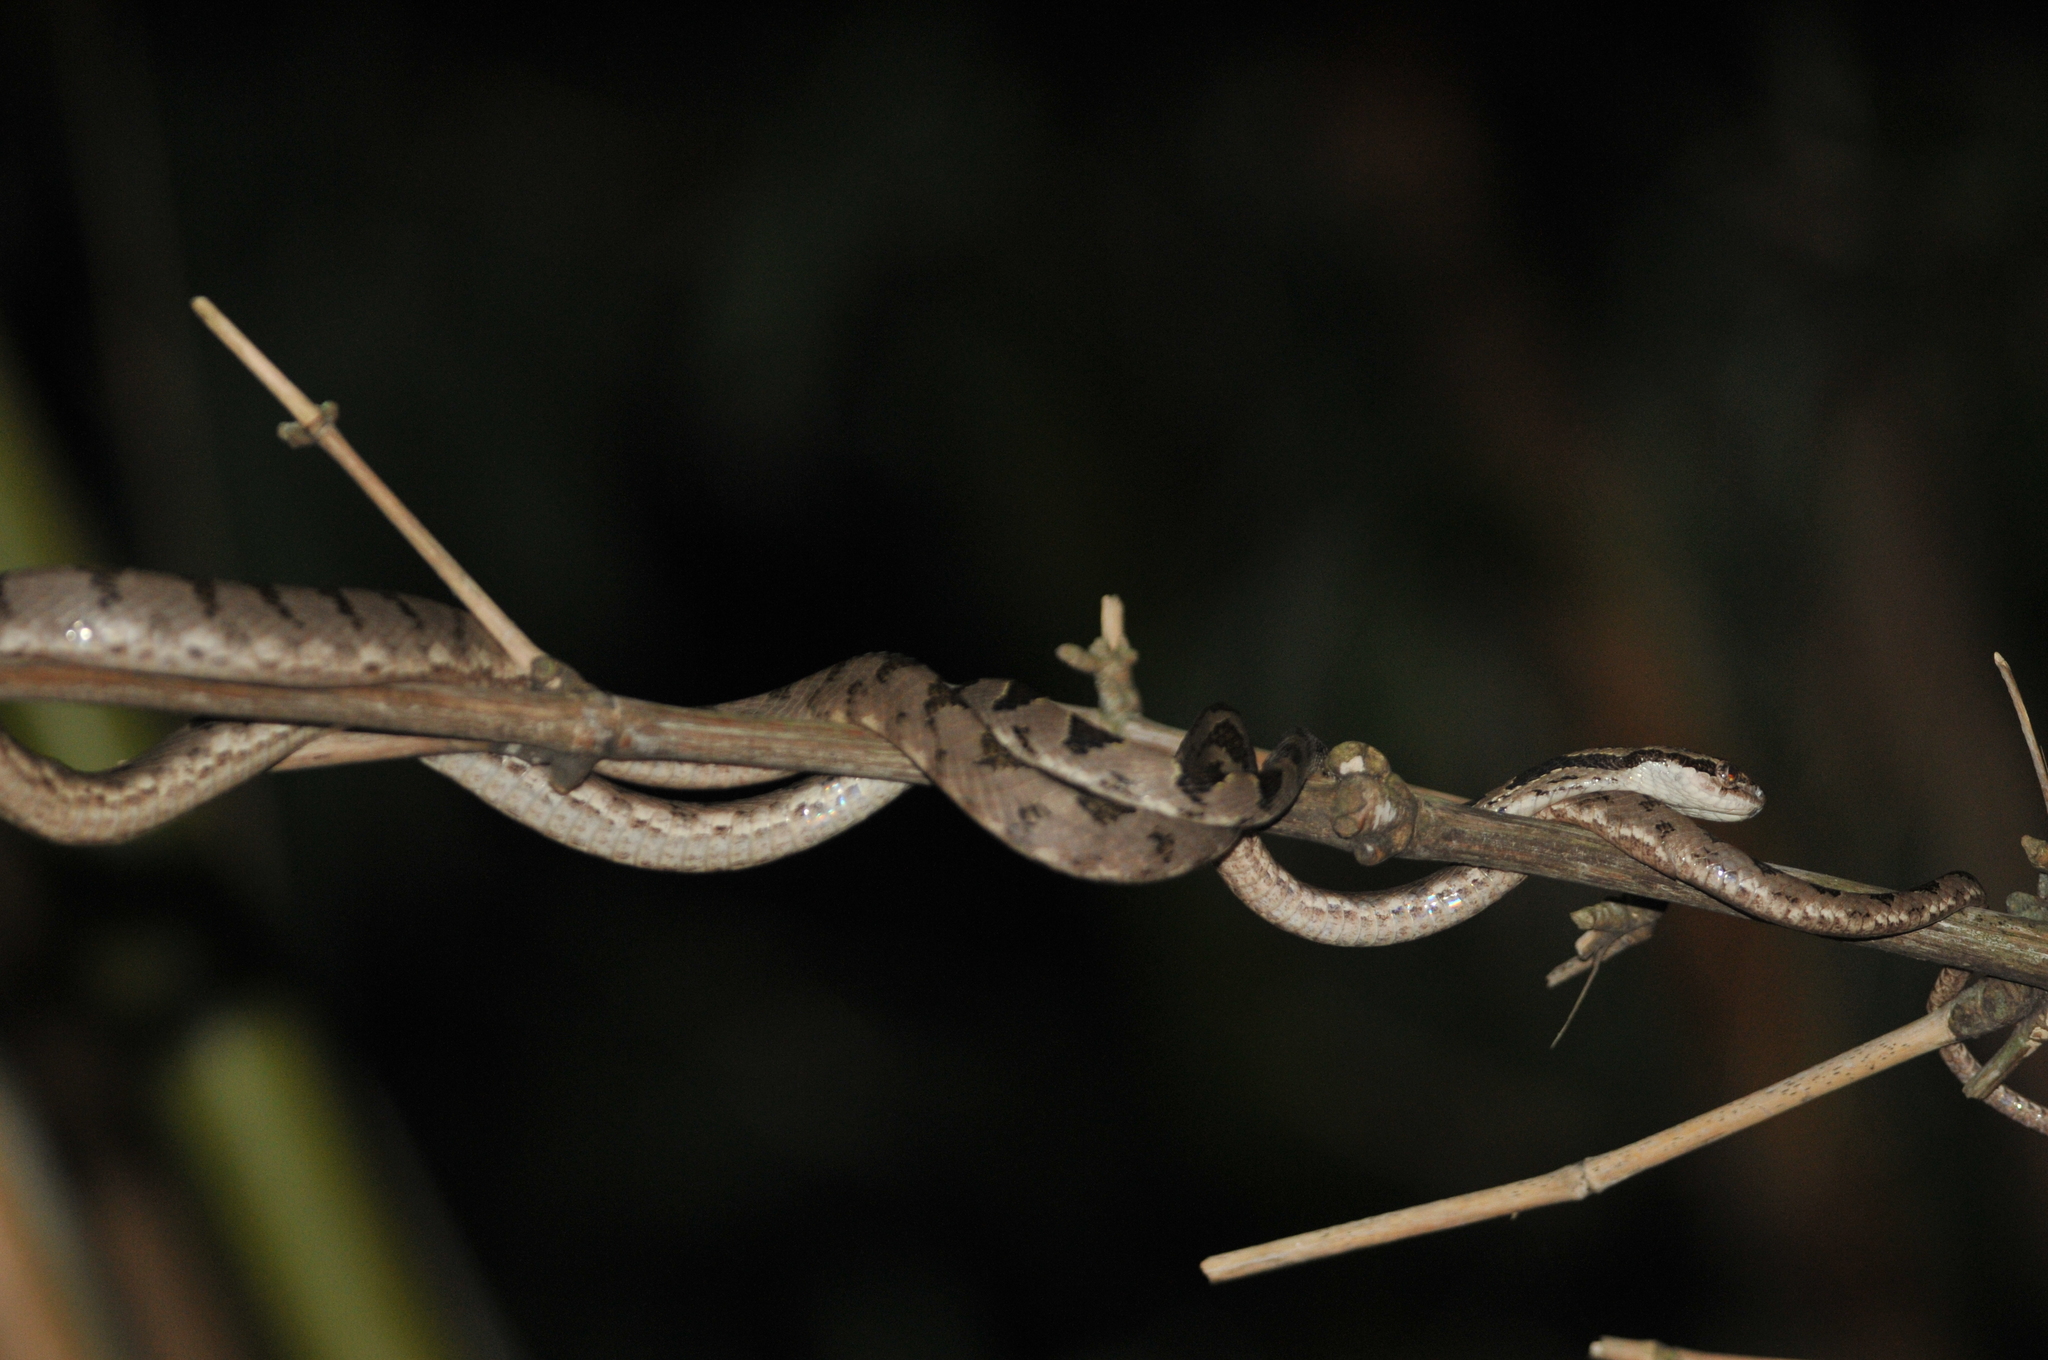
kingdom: Animalia
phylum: Chordata
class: Squamata
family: Colubridae
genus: Boiga
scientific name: Boiga kraepelini
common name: Kelung cat snake
